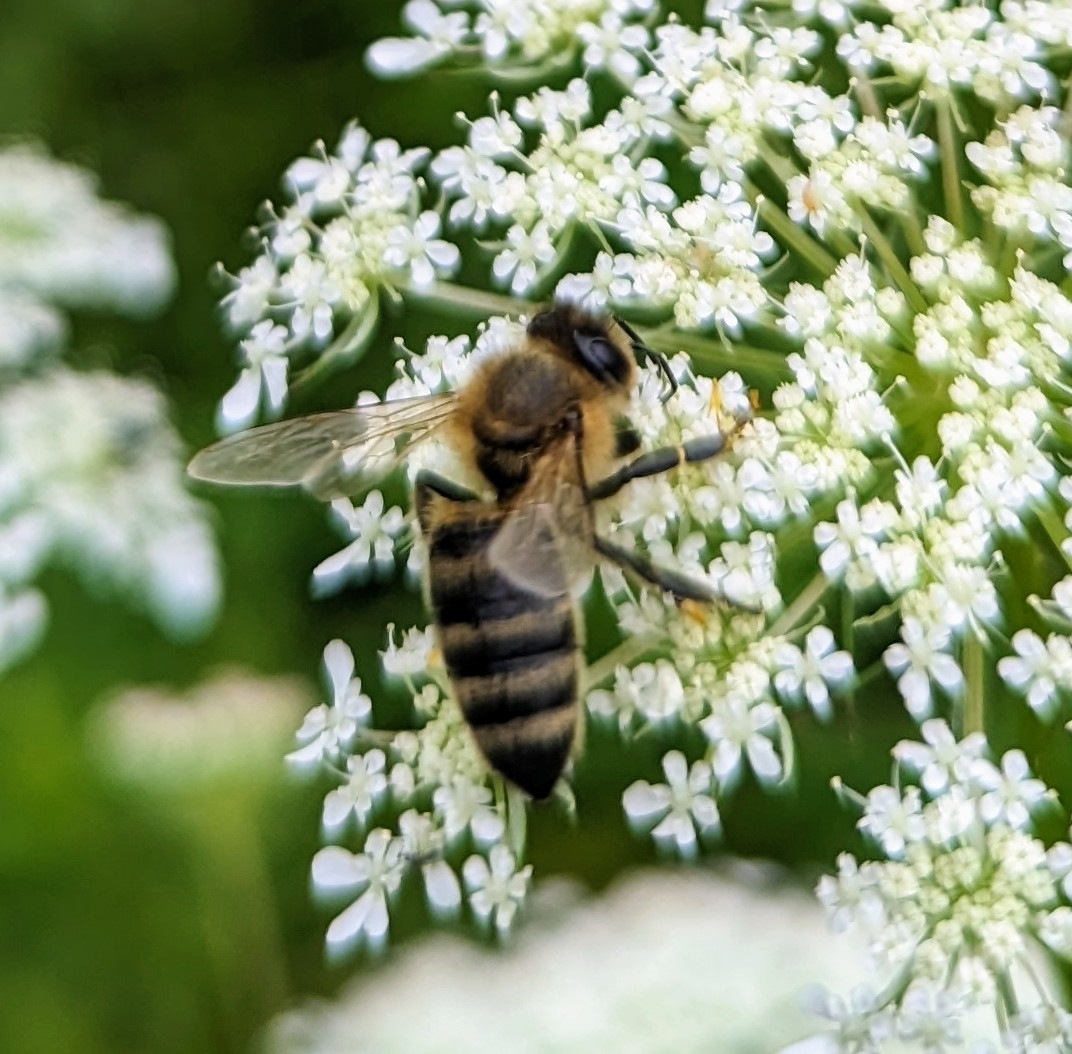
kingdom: Animalia
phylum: Arthropoda
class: Insecta
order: Hymenoptera
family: Apidae
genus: Apis
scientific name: Apis mellifera
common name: Honey bee
